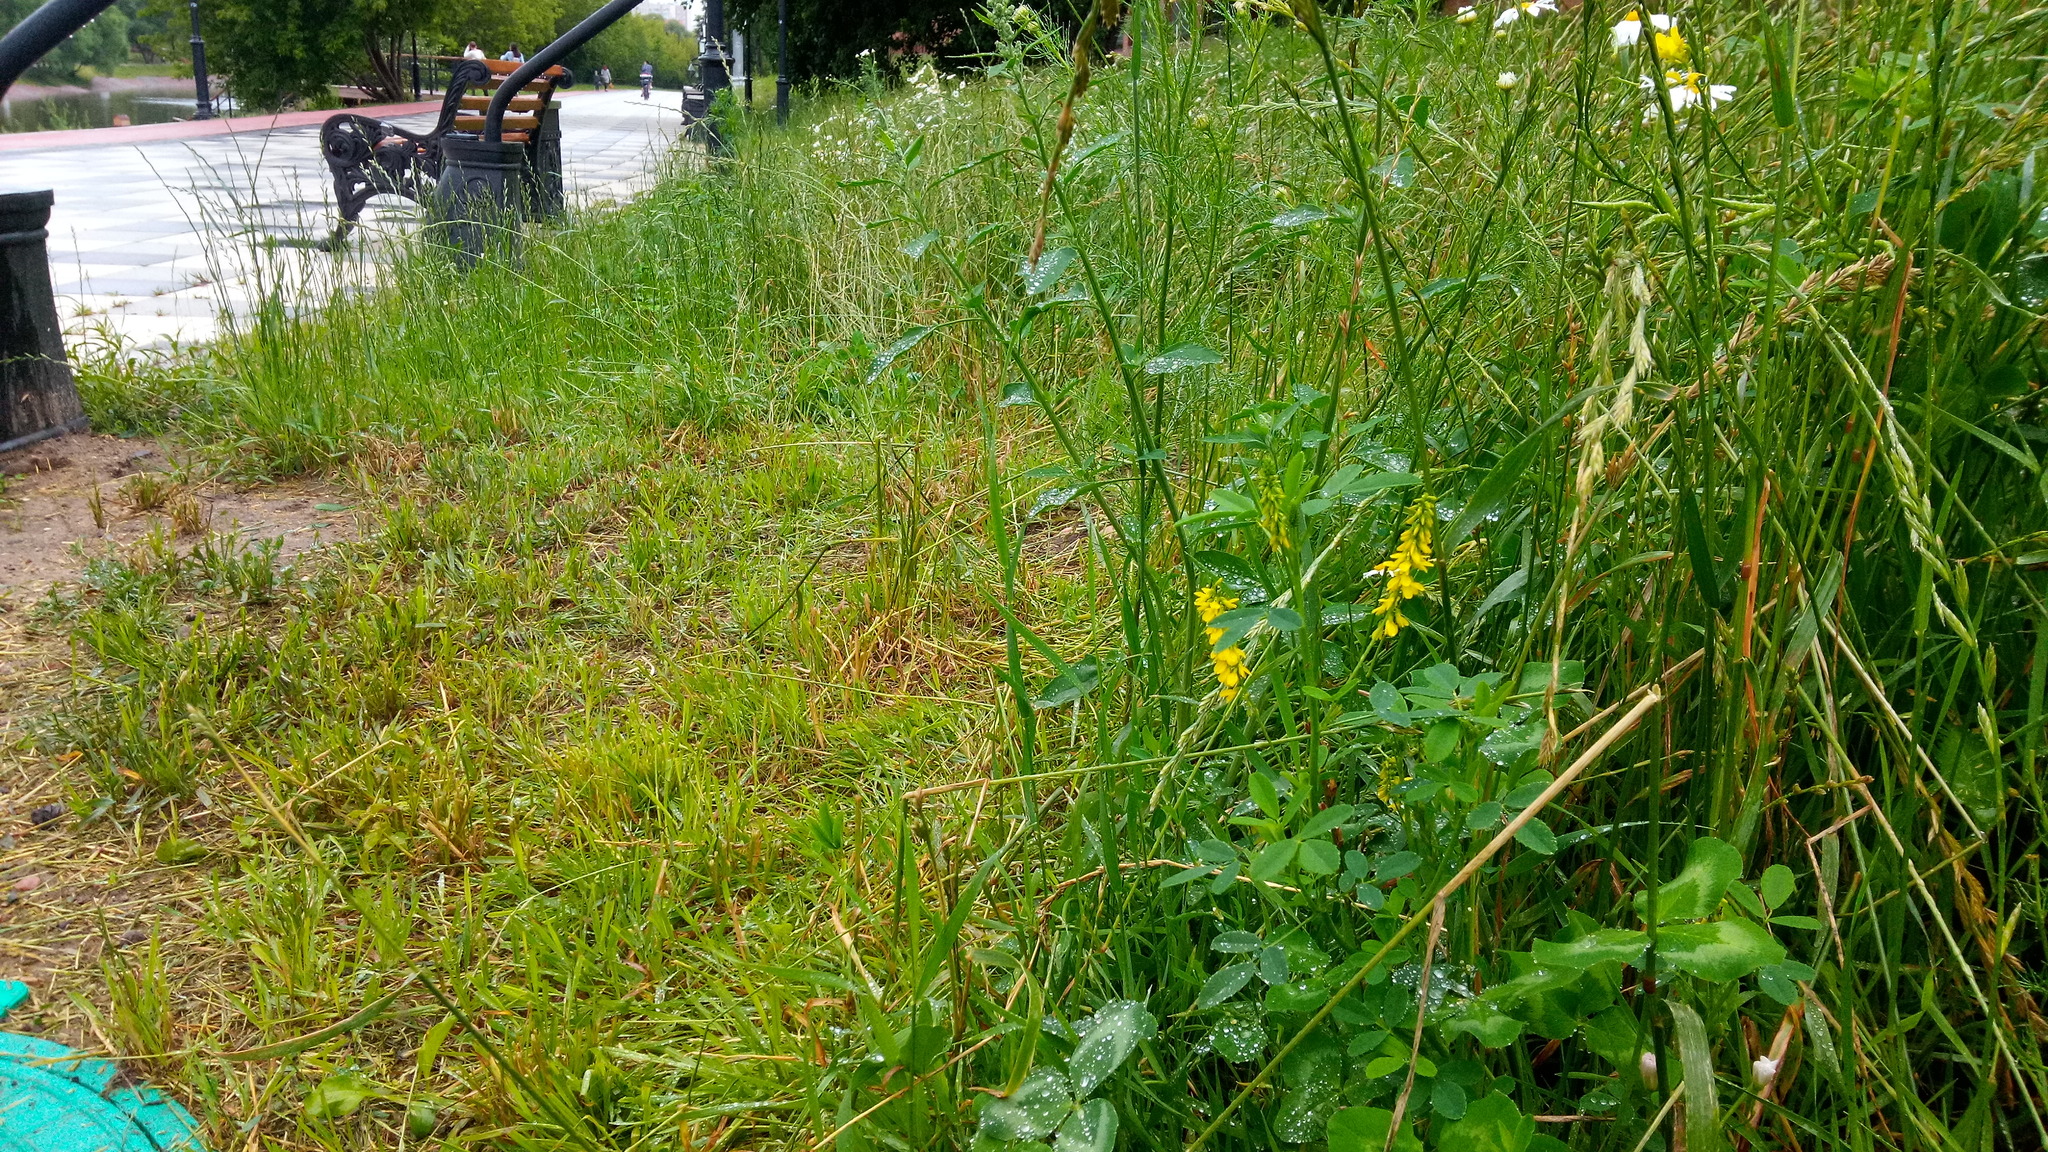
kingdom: Plantae
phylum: Tracheophyta
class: Magnoliopsida
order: Fabales
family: Fabaceae
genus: Melilotus
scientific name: Melilotus officinalis
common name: Sweetclover
